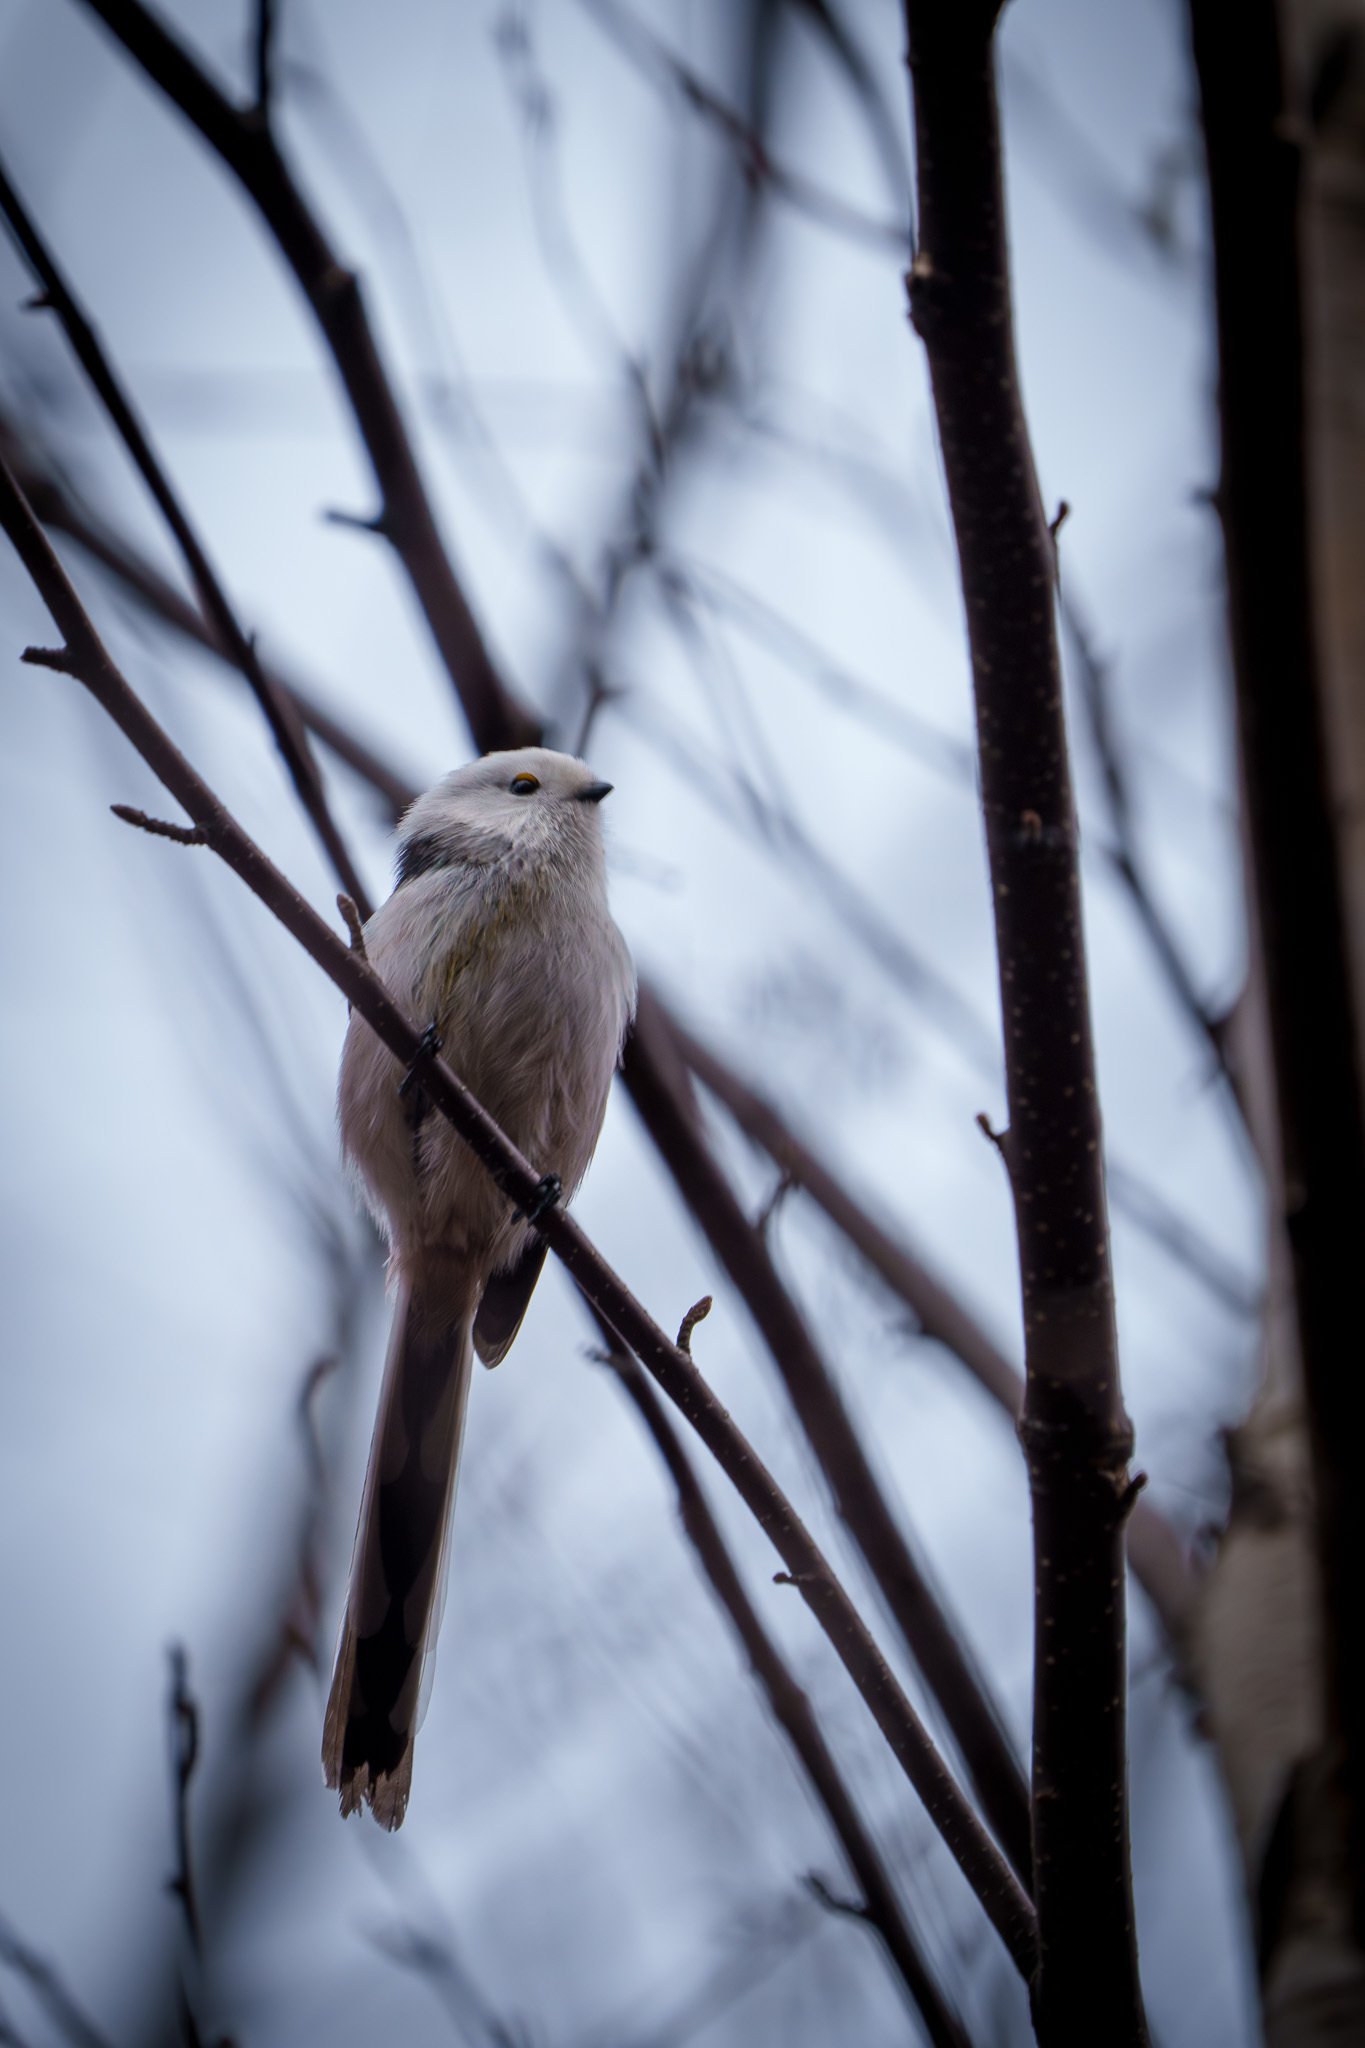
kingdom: Animalia
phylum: Chordata
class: Aves
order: Passeriformes
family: Aegithalidae
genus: Aegithalos
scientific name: Aegithalos caudatus
